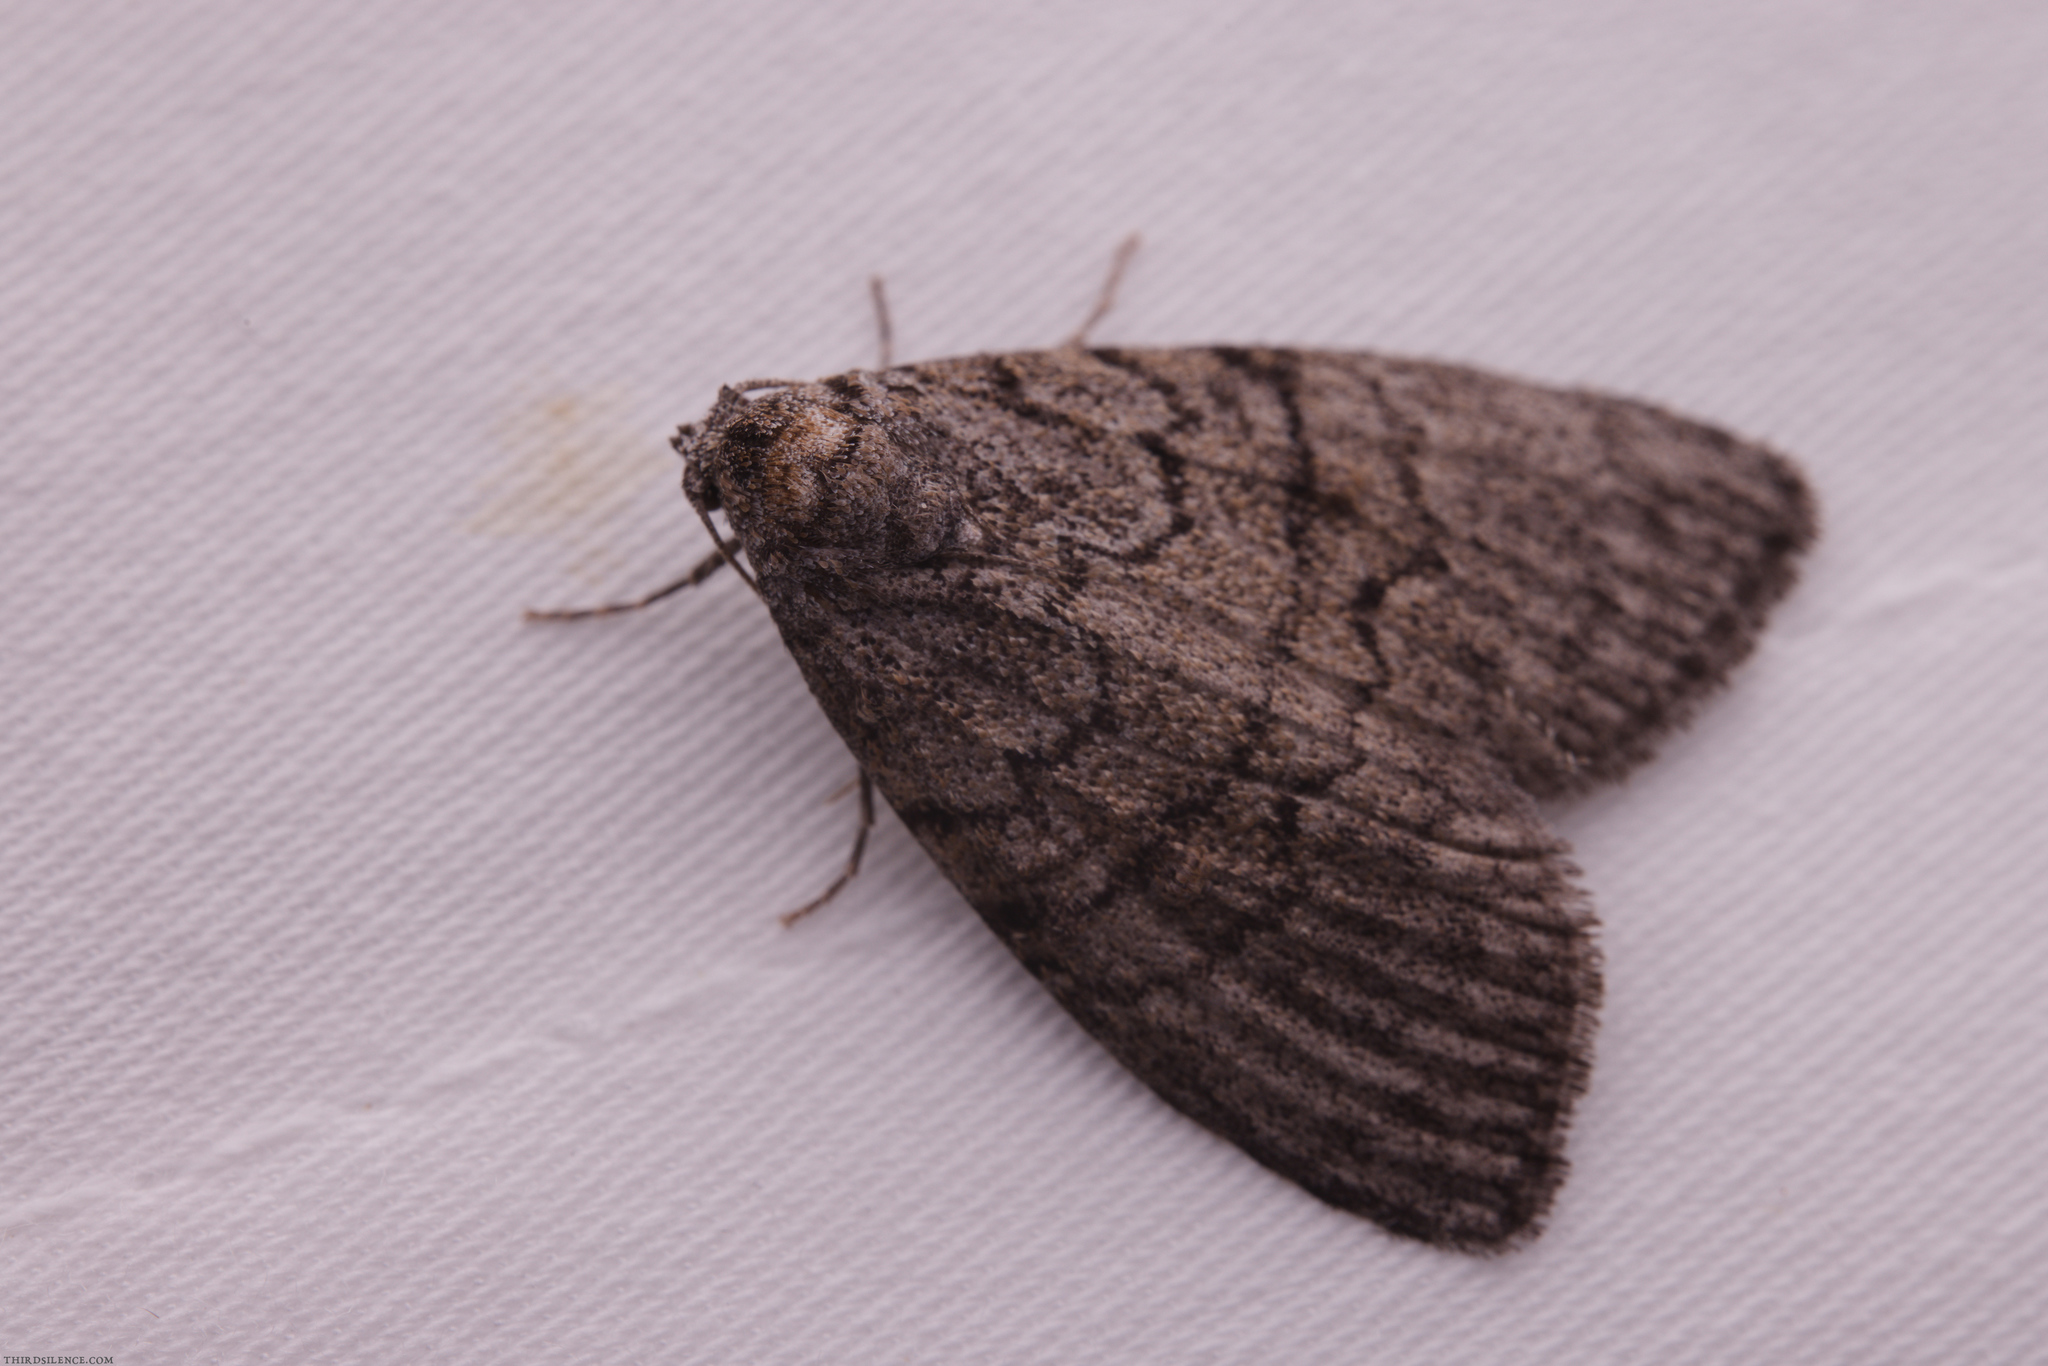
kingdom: Animalia
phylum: Arthropoda
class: Insecta
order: Lepidoptera
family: Nolidae
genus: Uraba
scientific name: Uraba lugens
